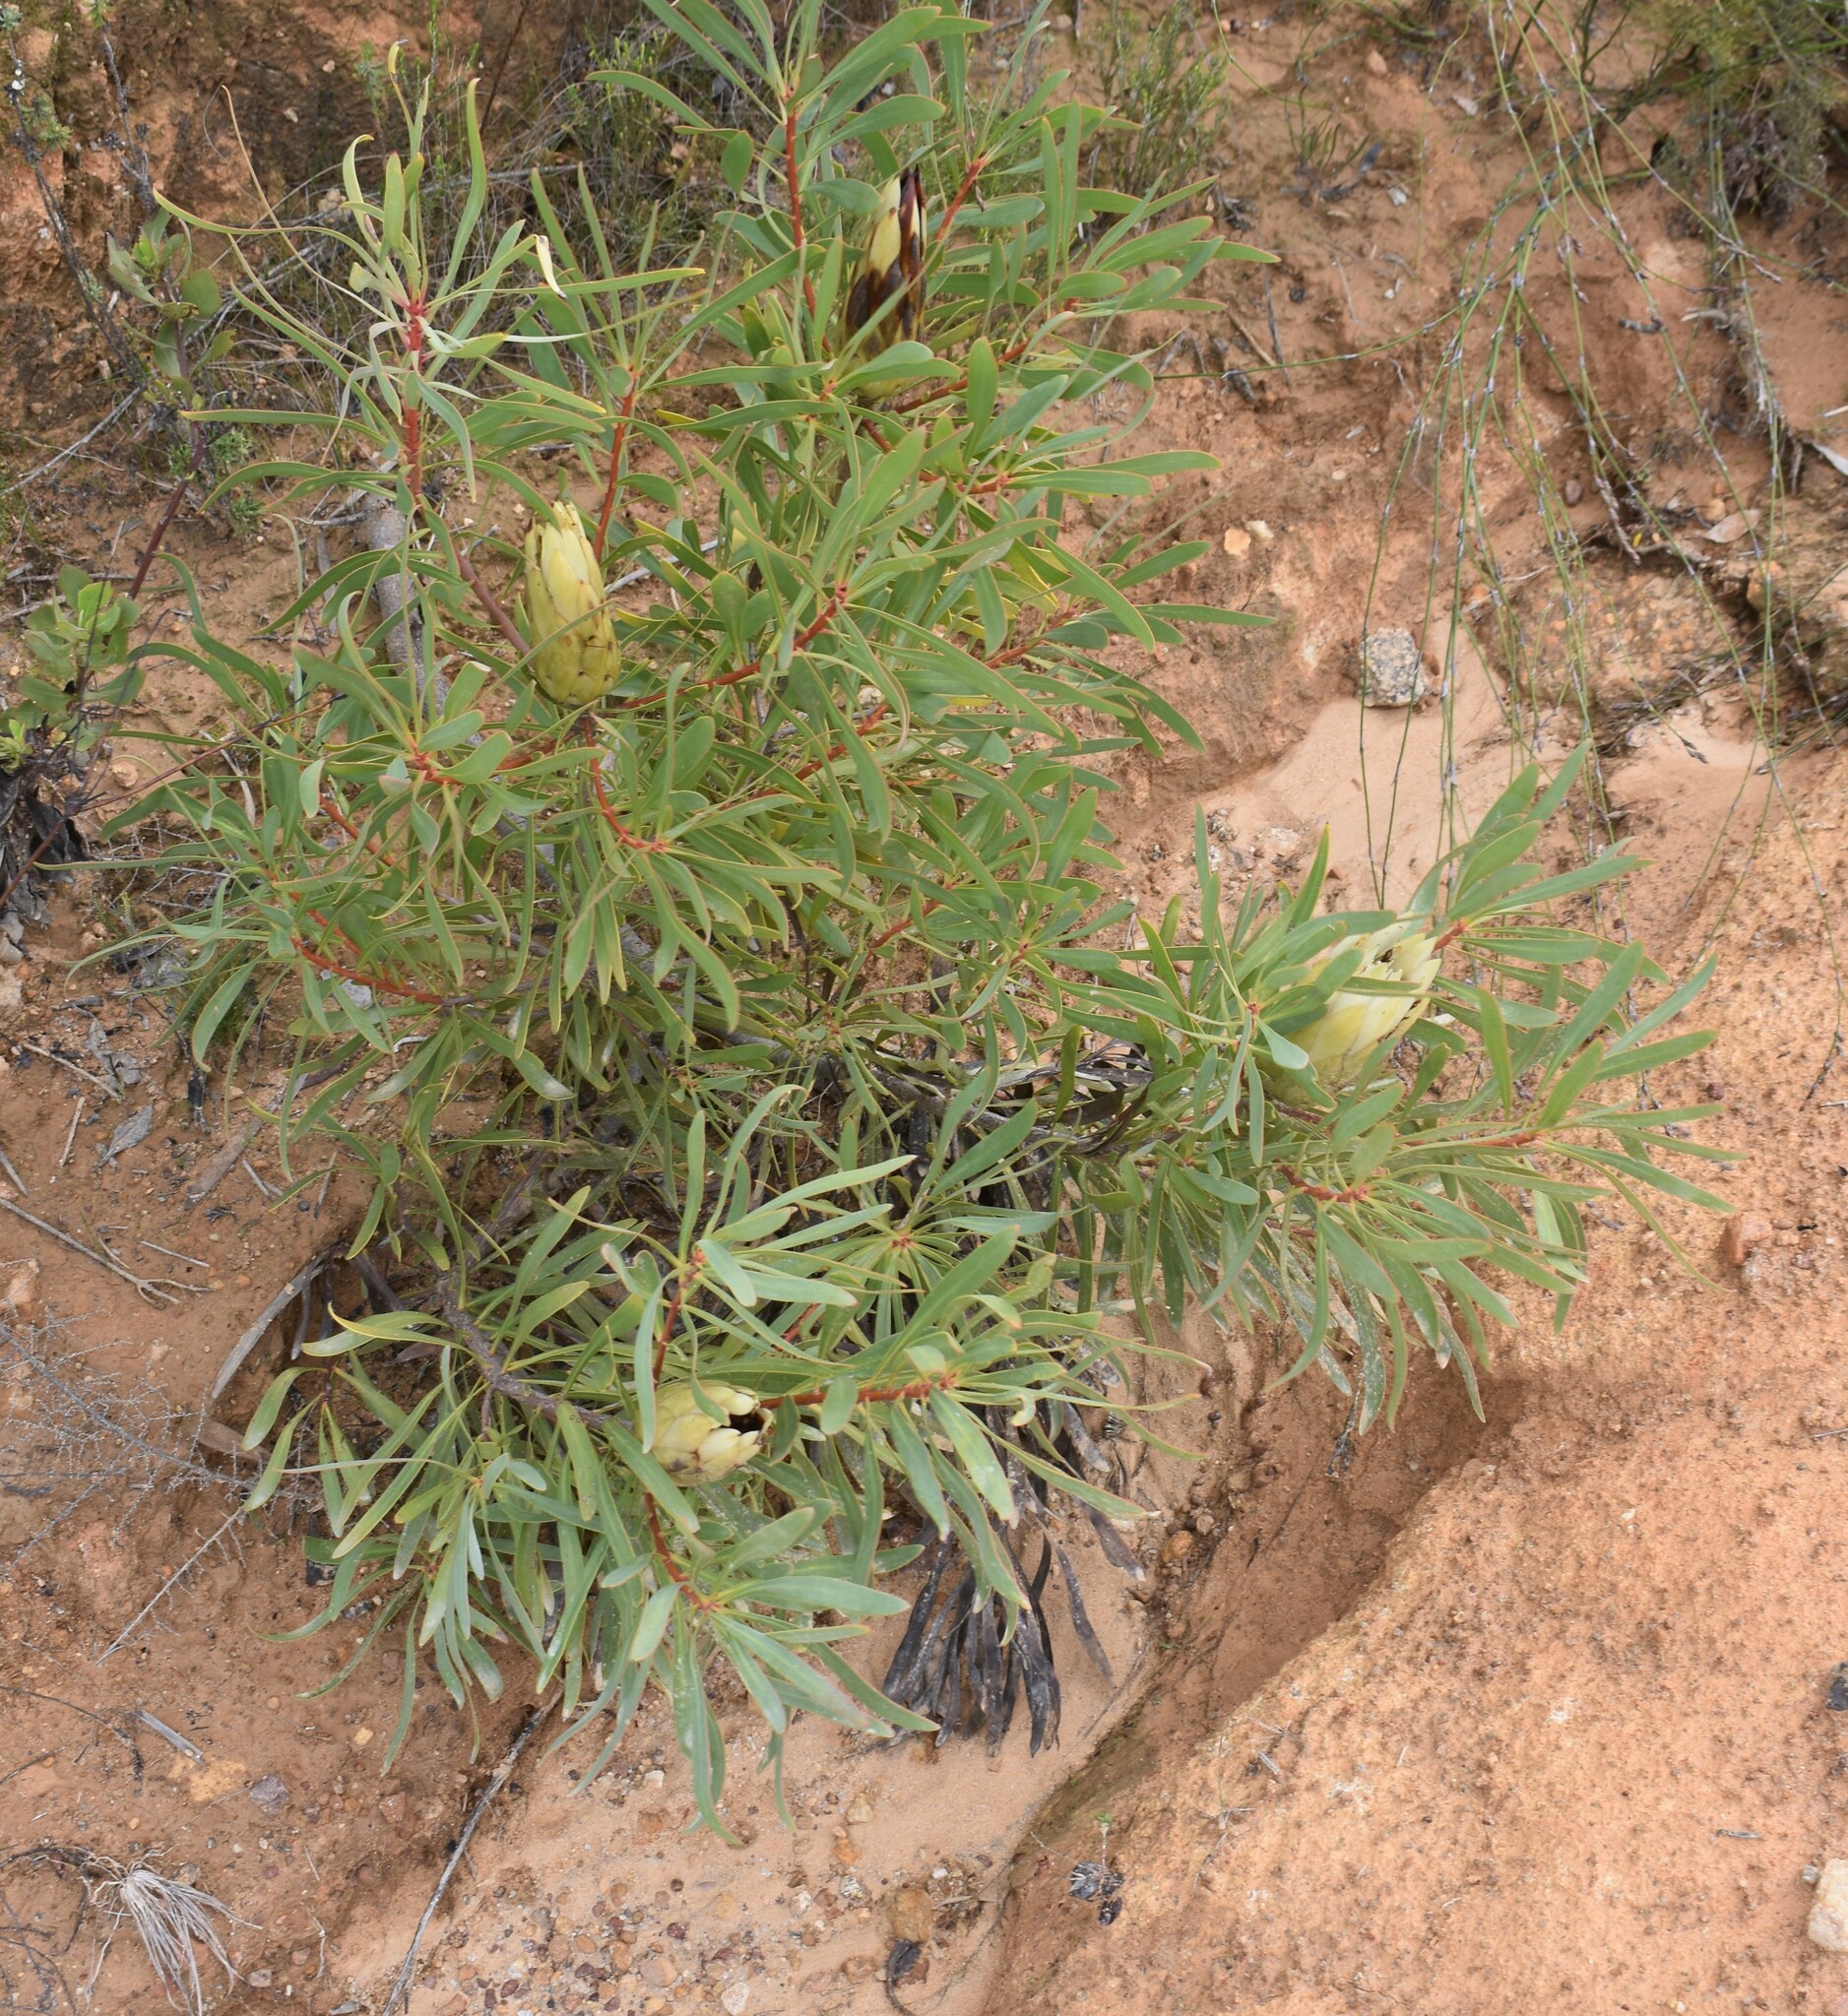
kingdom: Plantae
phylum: Tracheophyta
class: Magnoliopsida
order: Proteales
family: Proteaceae
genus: Protea
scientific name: Protea repens
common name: Sugarbush
